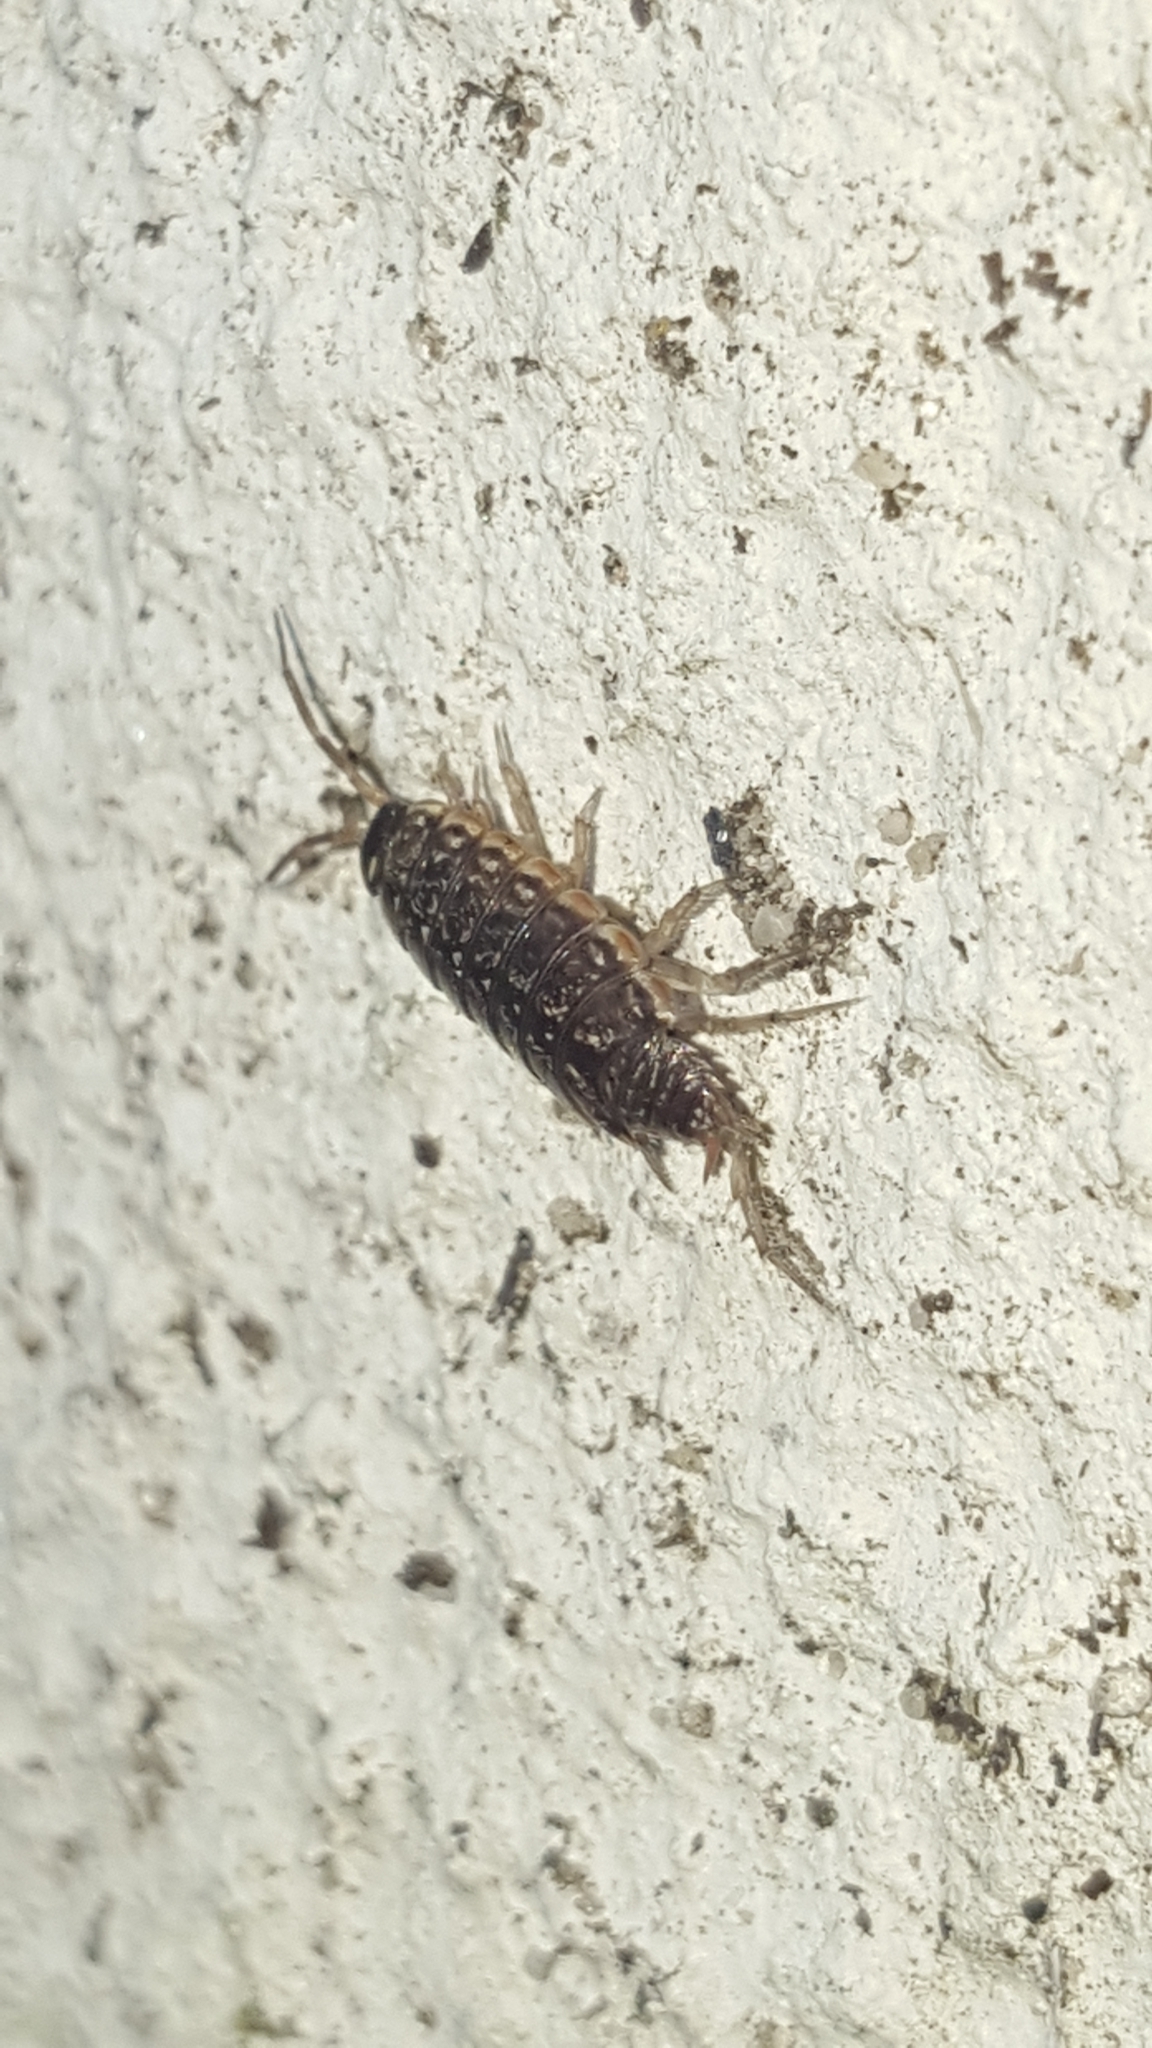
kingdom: Animalia
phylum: Arthropoda
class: Malacostraca
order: Isopoda
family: Philosciidae
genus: Philoscia
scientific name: Philoscia muscorum
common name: Common striped woodlouse
